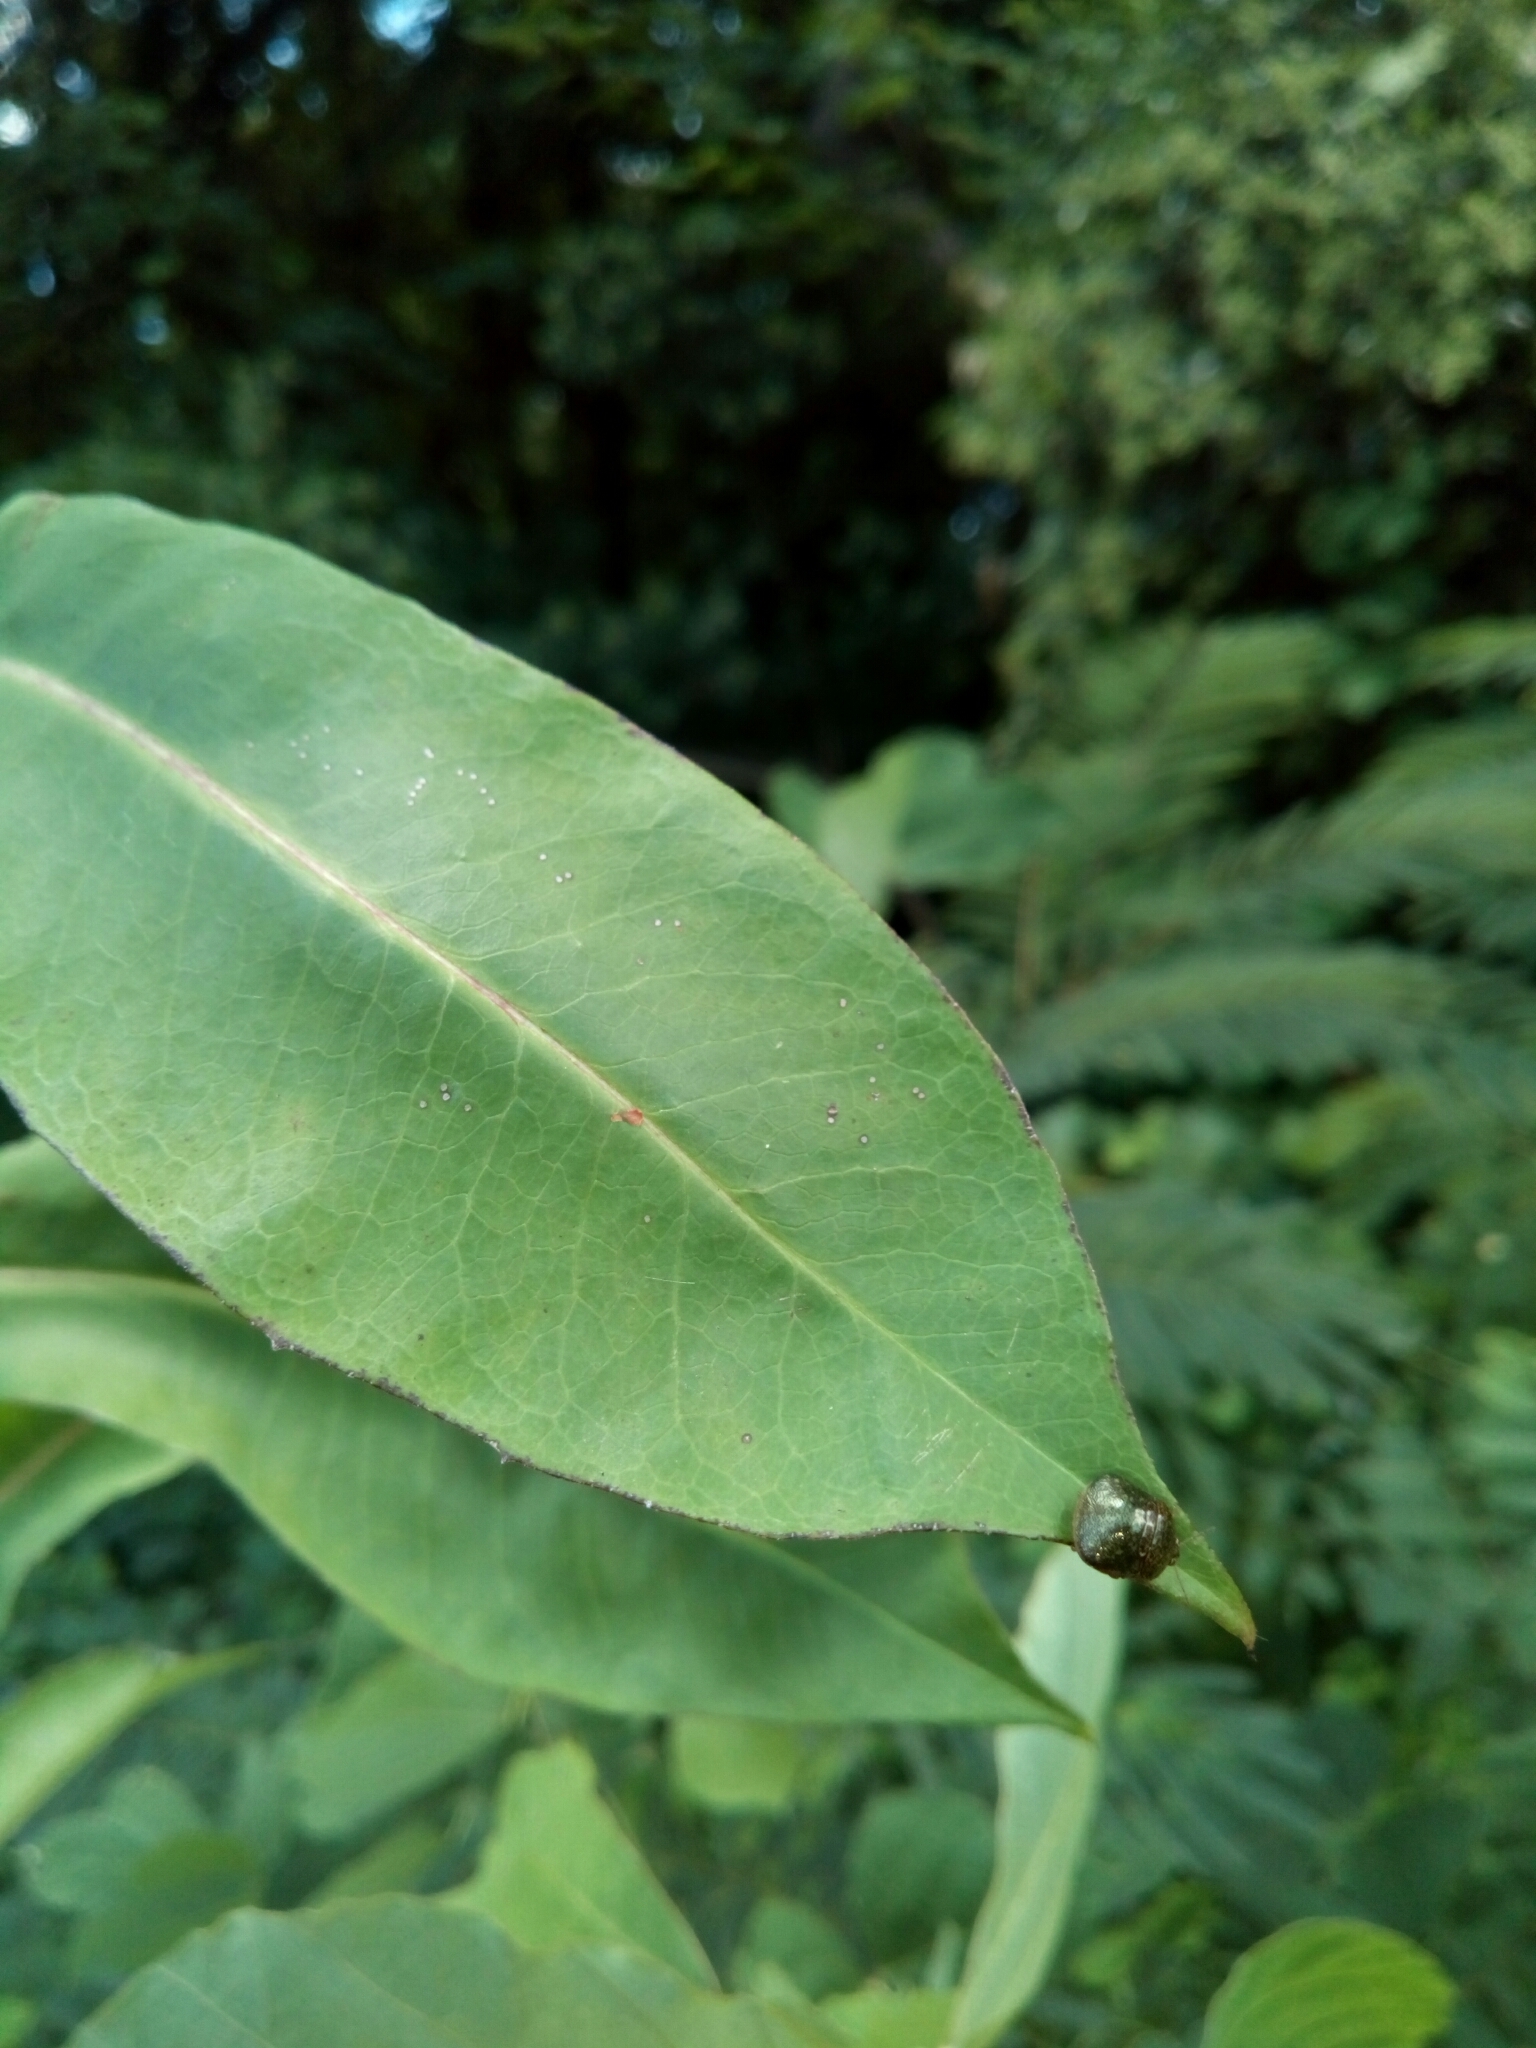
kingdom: Animalia
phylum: Arthropoda
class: Insecta
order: Hemiptera
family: Plataspidae
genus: Megacopta
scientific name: Megacopta cribraria
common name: Bean plataspid
